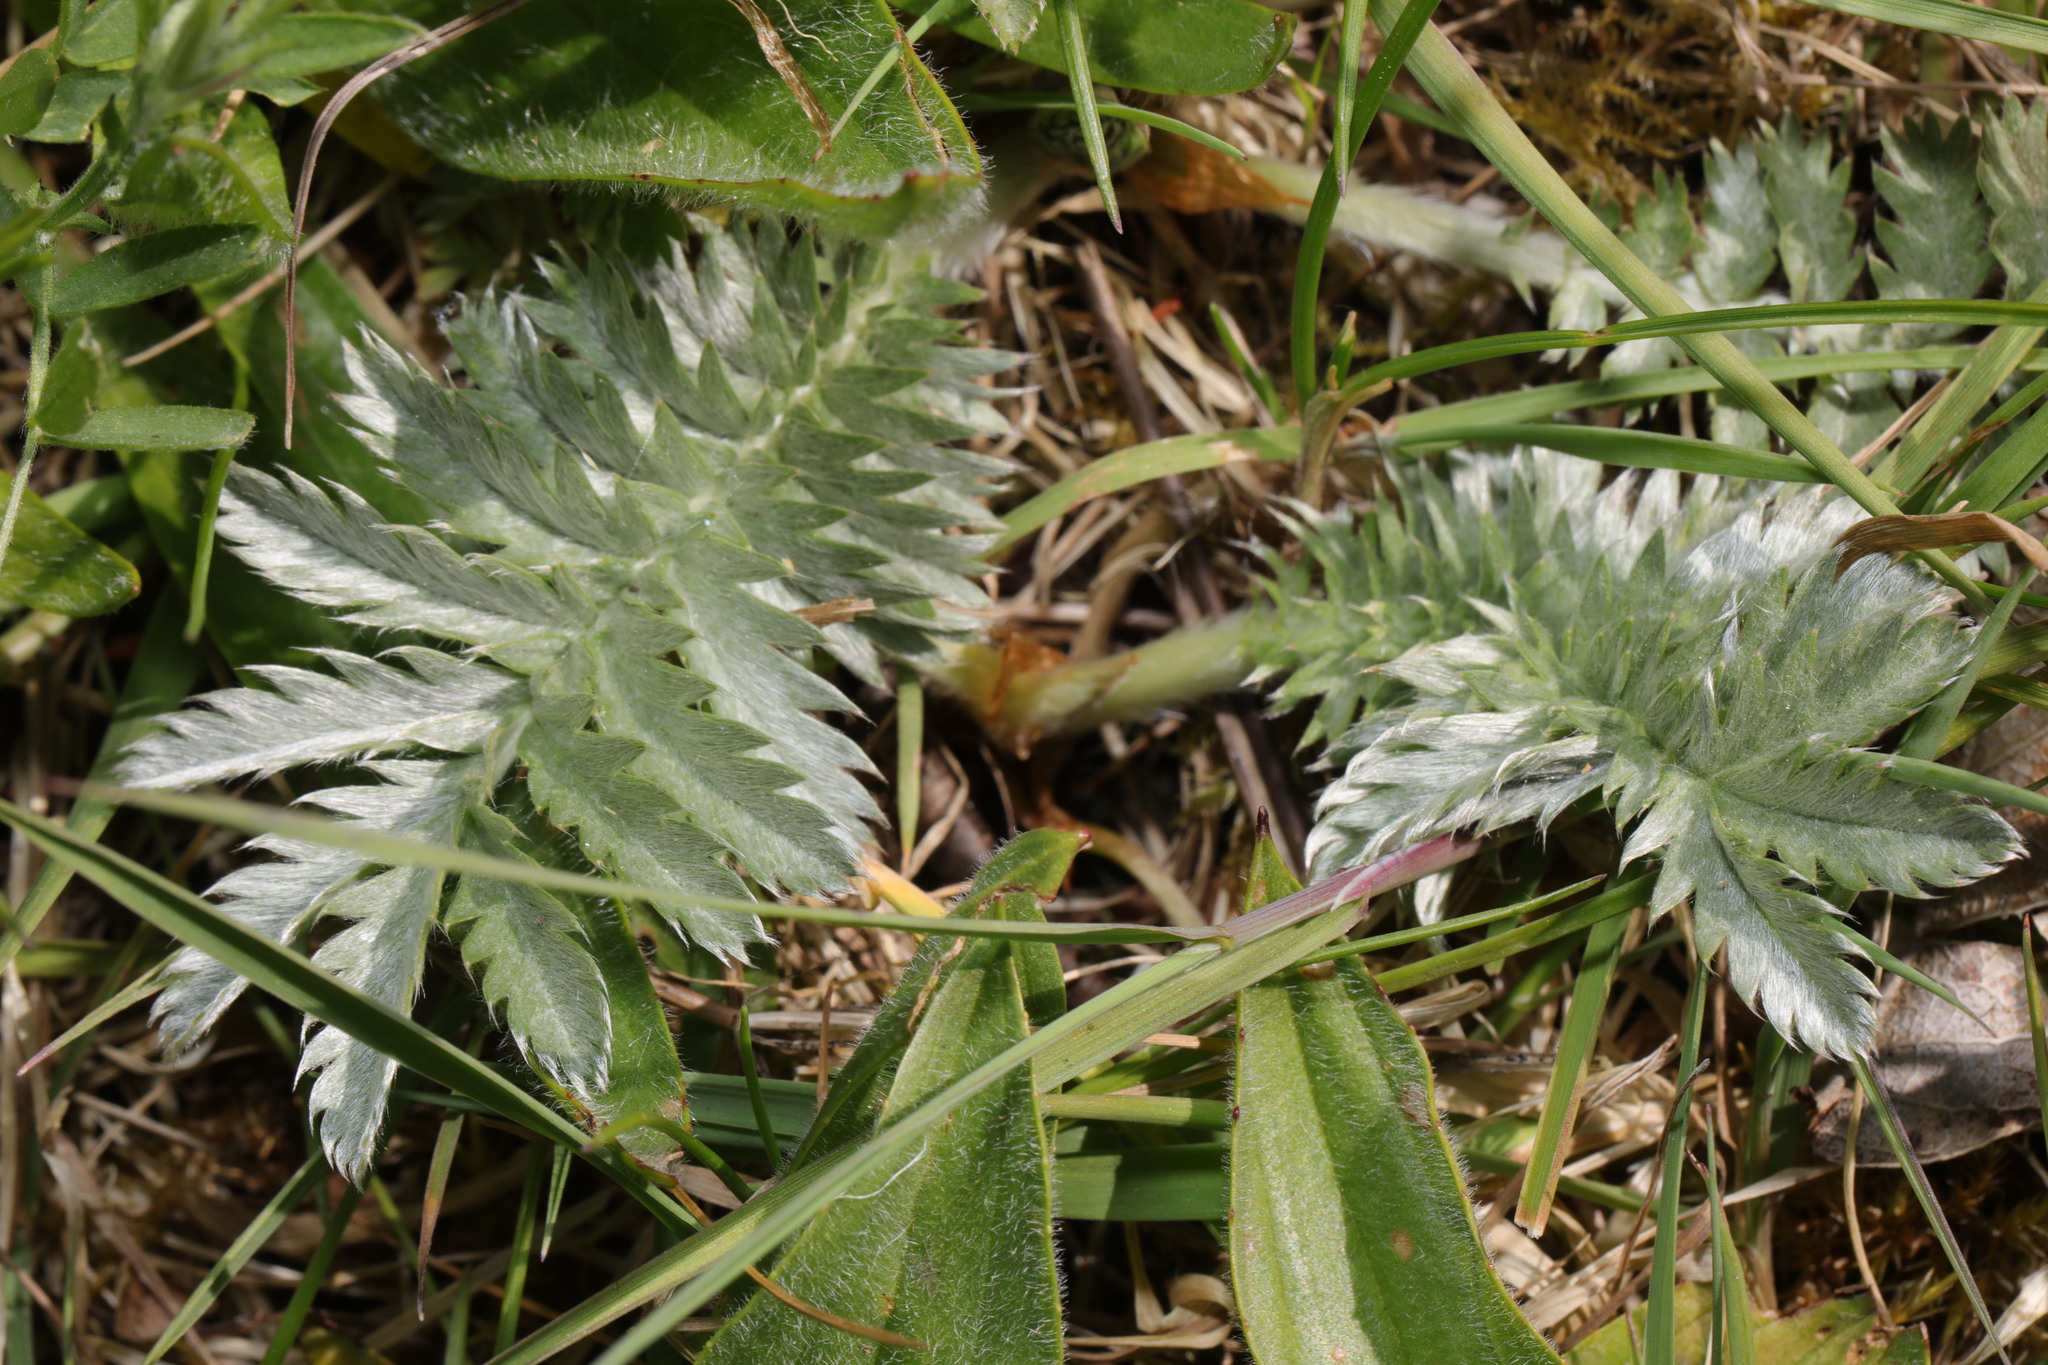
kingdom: Plantae
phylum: Tracheophyta
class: Magnoliopsida
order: Rosales
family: Rosaceae
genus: Argentina
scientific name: Argentina anserina
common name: Common silverweed
